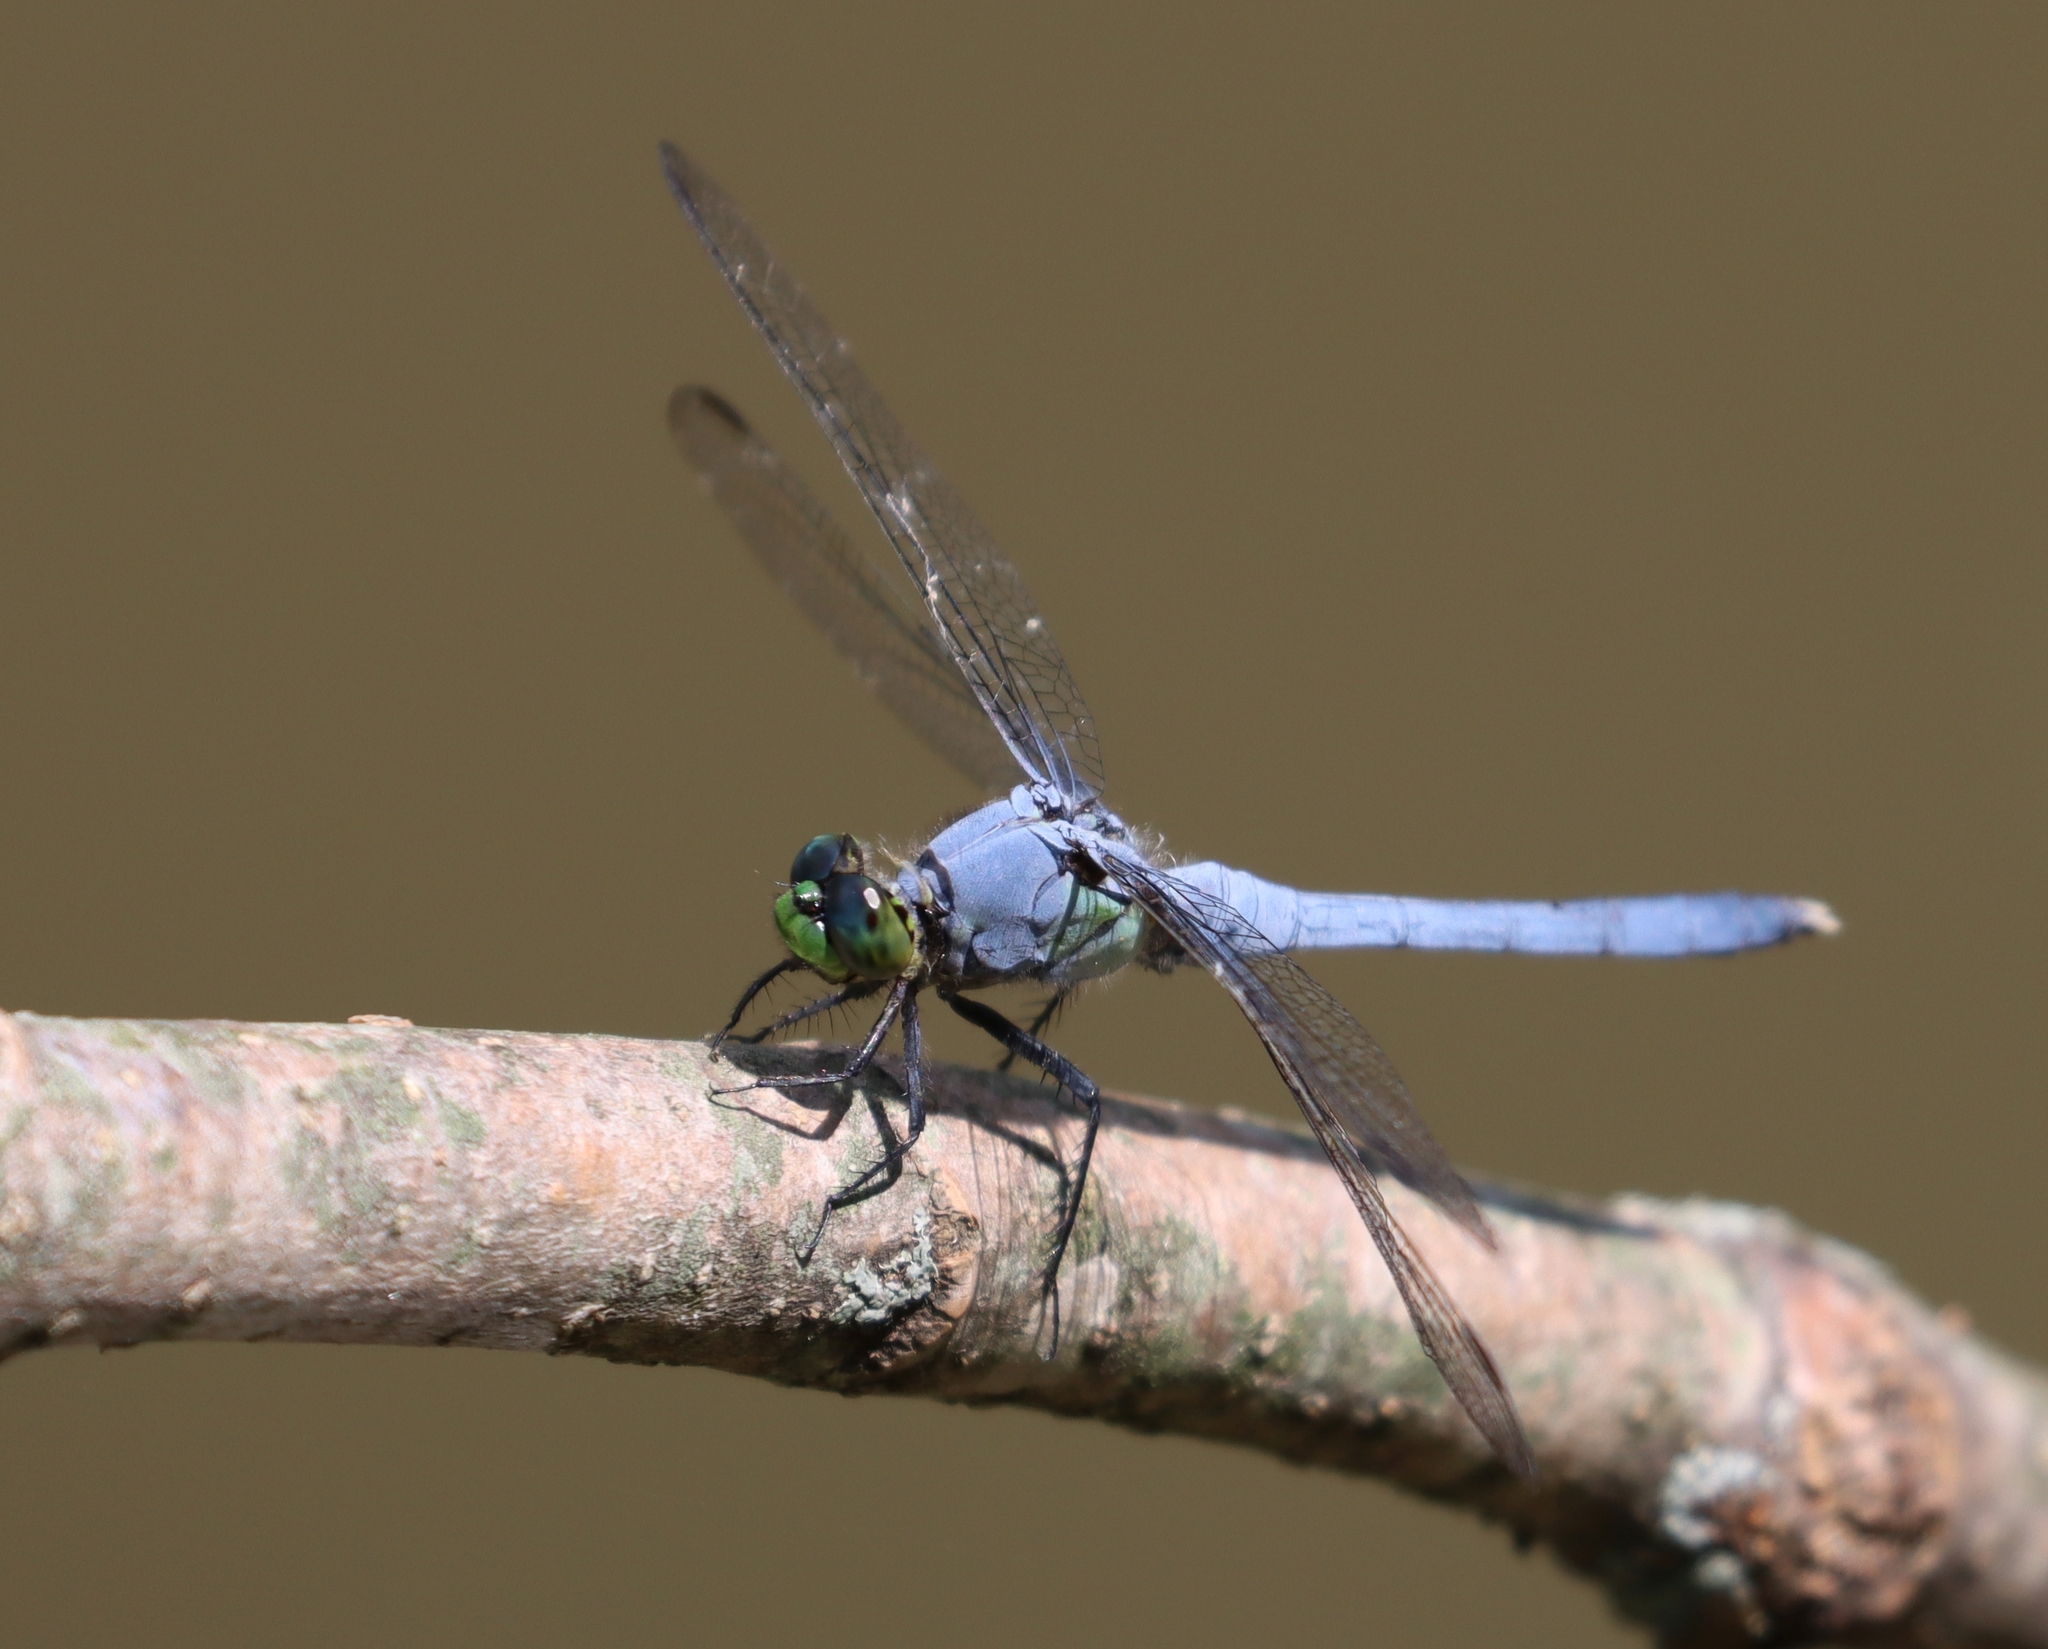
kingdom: Animalia
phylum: Arthropoda
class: Insecta
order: Odonata
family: Libellulidae
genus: Erythemis
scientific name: Erythemis simplicicollis
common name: Eastern pondhawk
